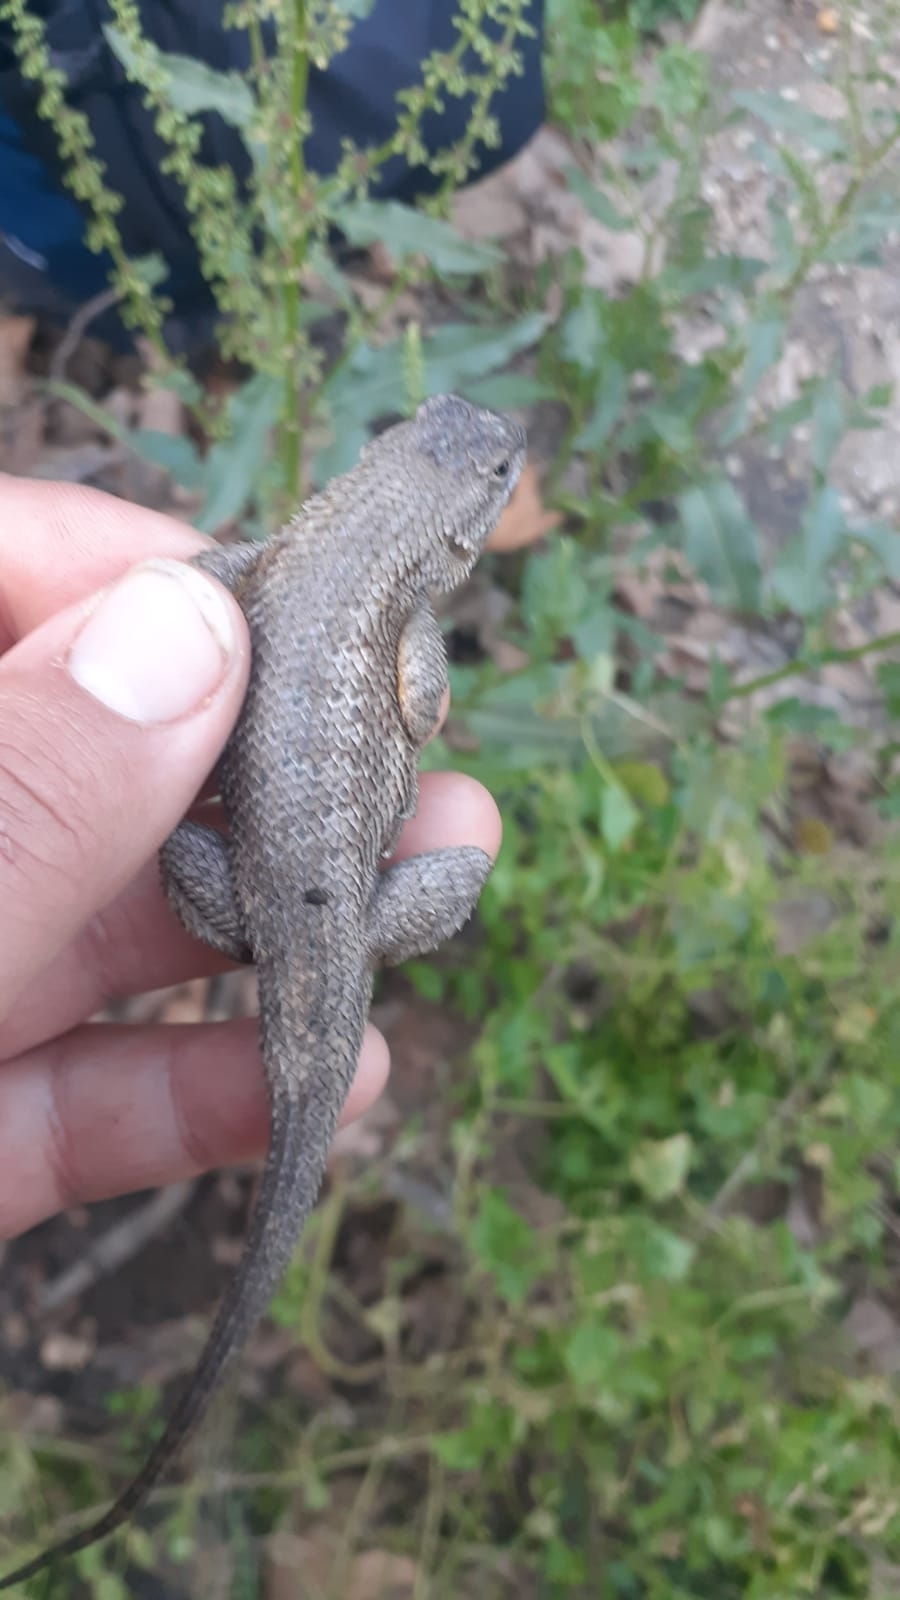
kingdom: Animalia
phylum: Chordata
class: Squamata
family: Phrynosomatidae
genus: Sceloporus
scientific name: Sceloporus occidentalis
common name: Western fence lizard
